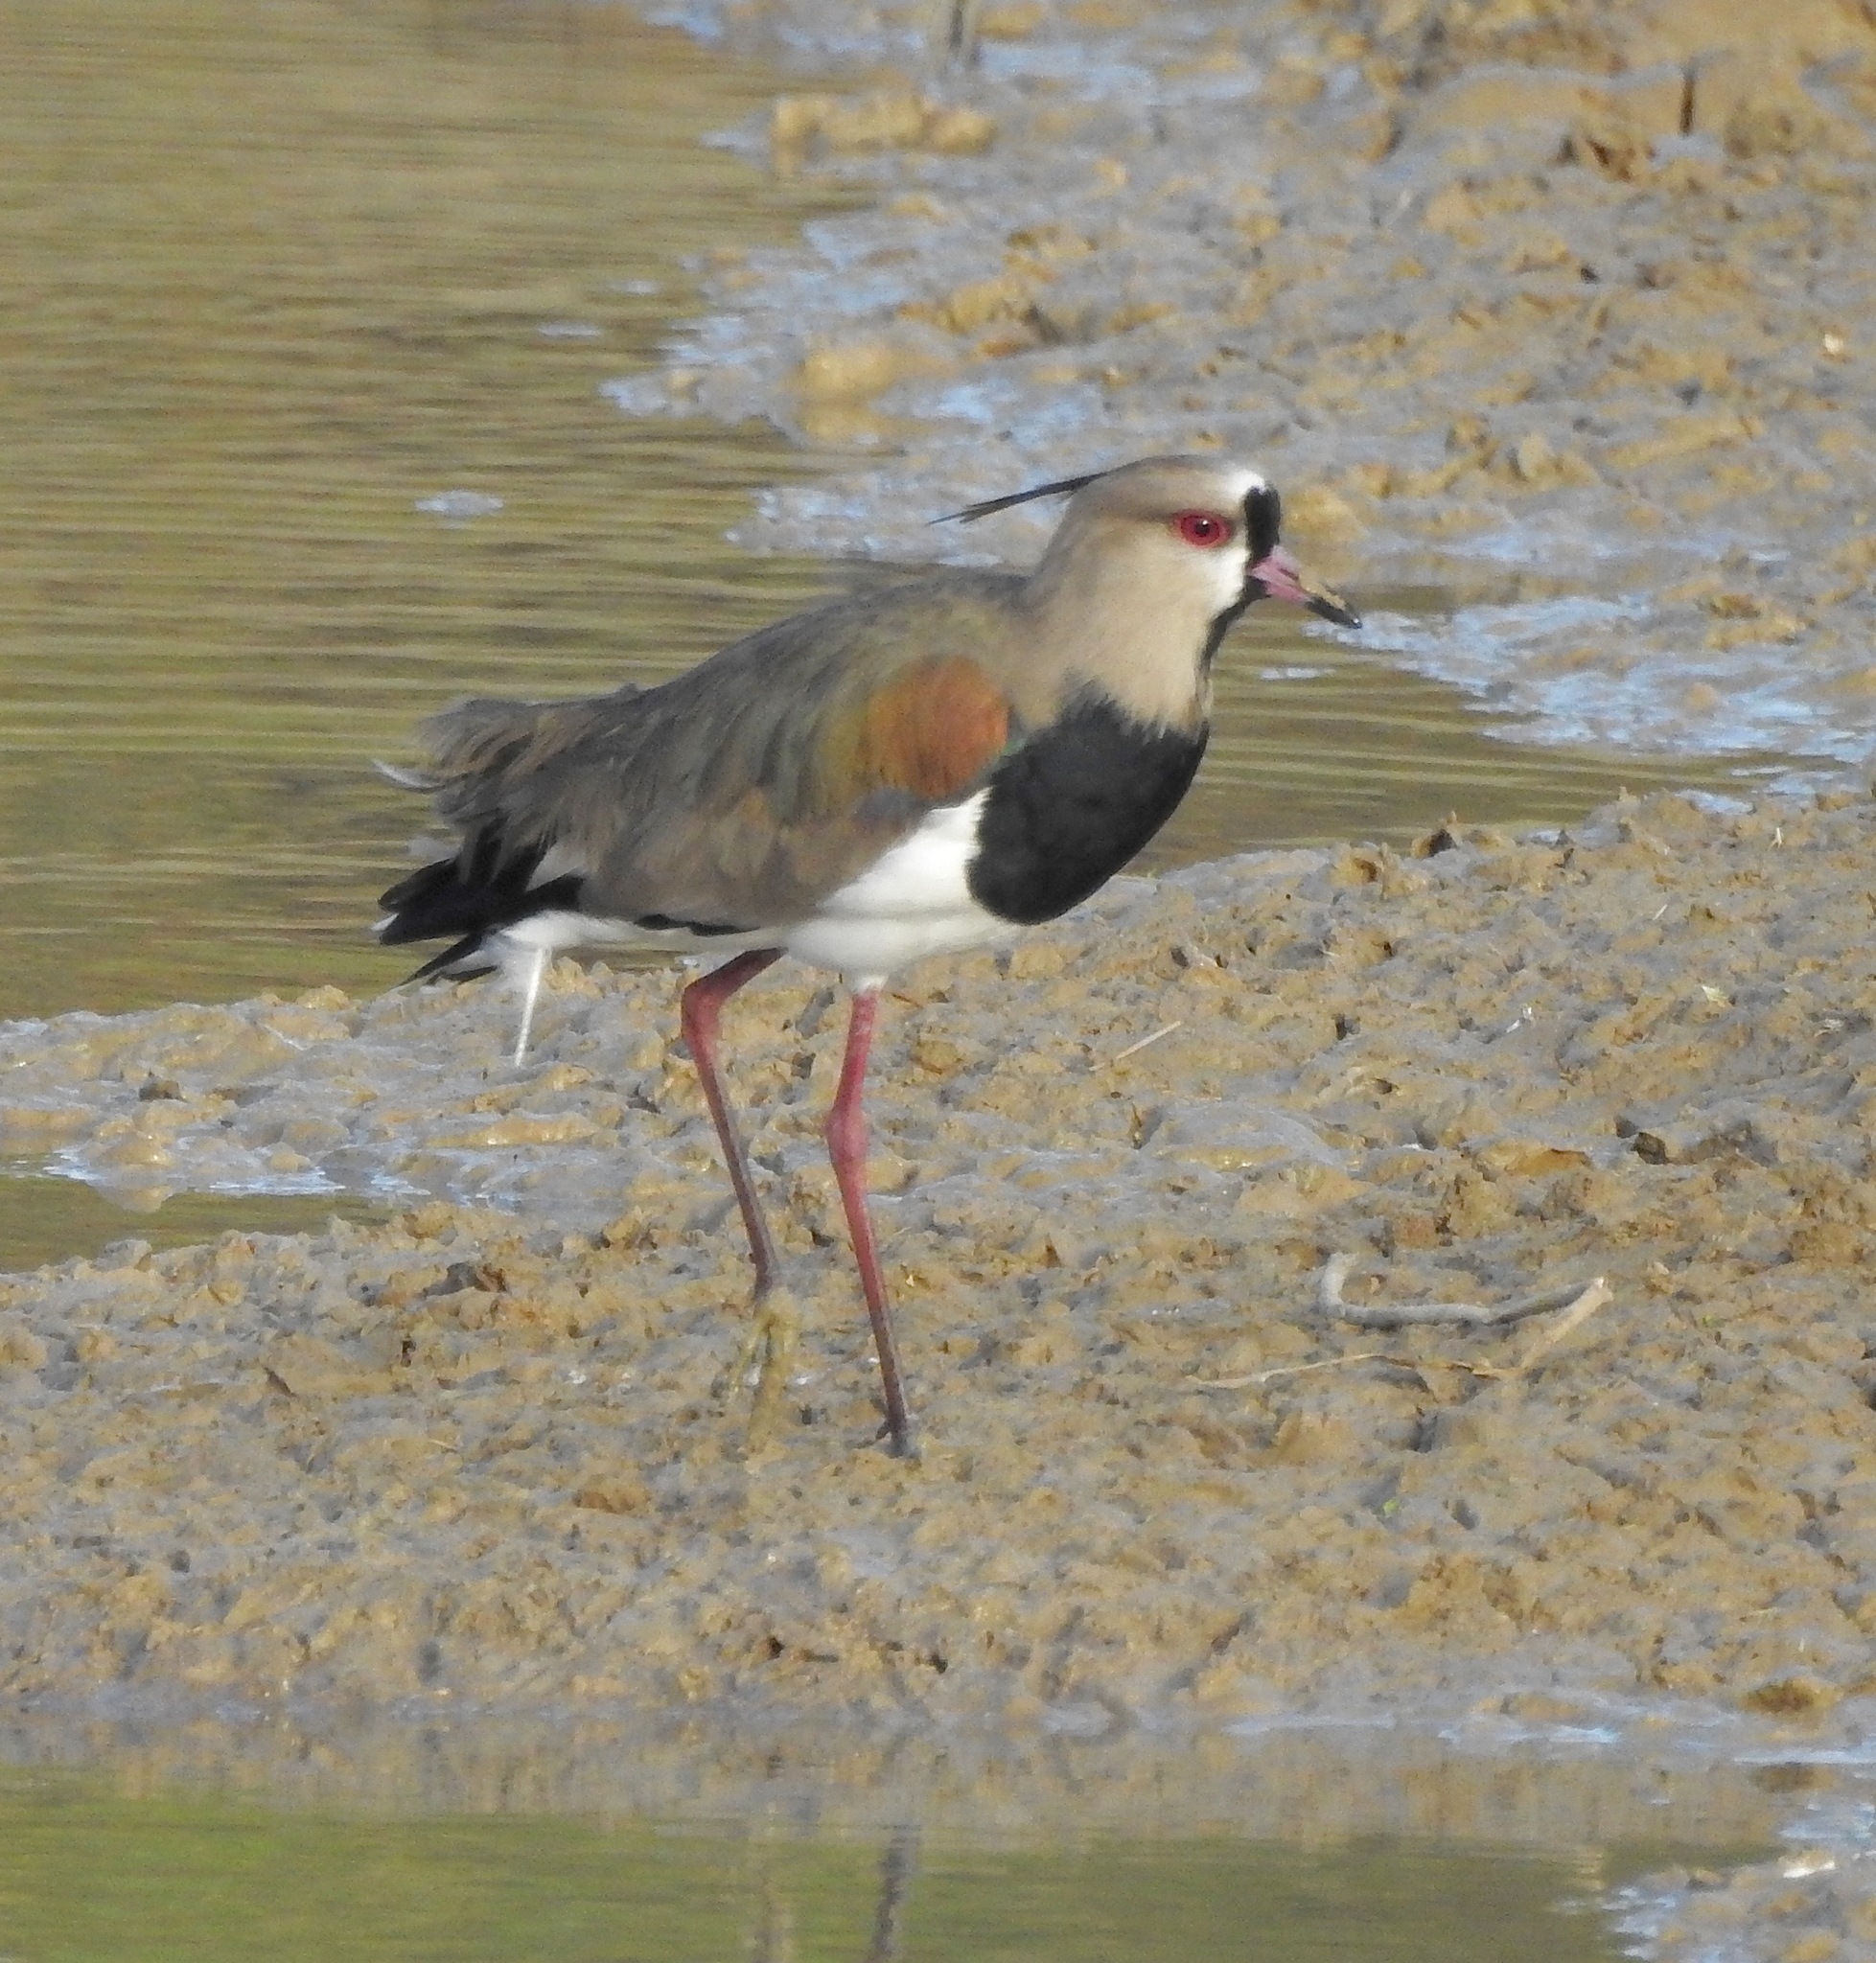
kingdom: Animalia
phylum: Chordata
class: Aves
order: Charadriiformes
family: Charadriidae
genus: Vanellus
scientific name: Vanellus chilensis
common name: Southern lapwing
